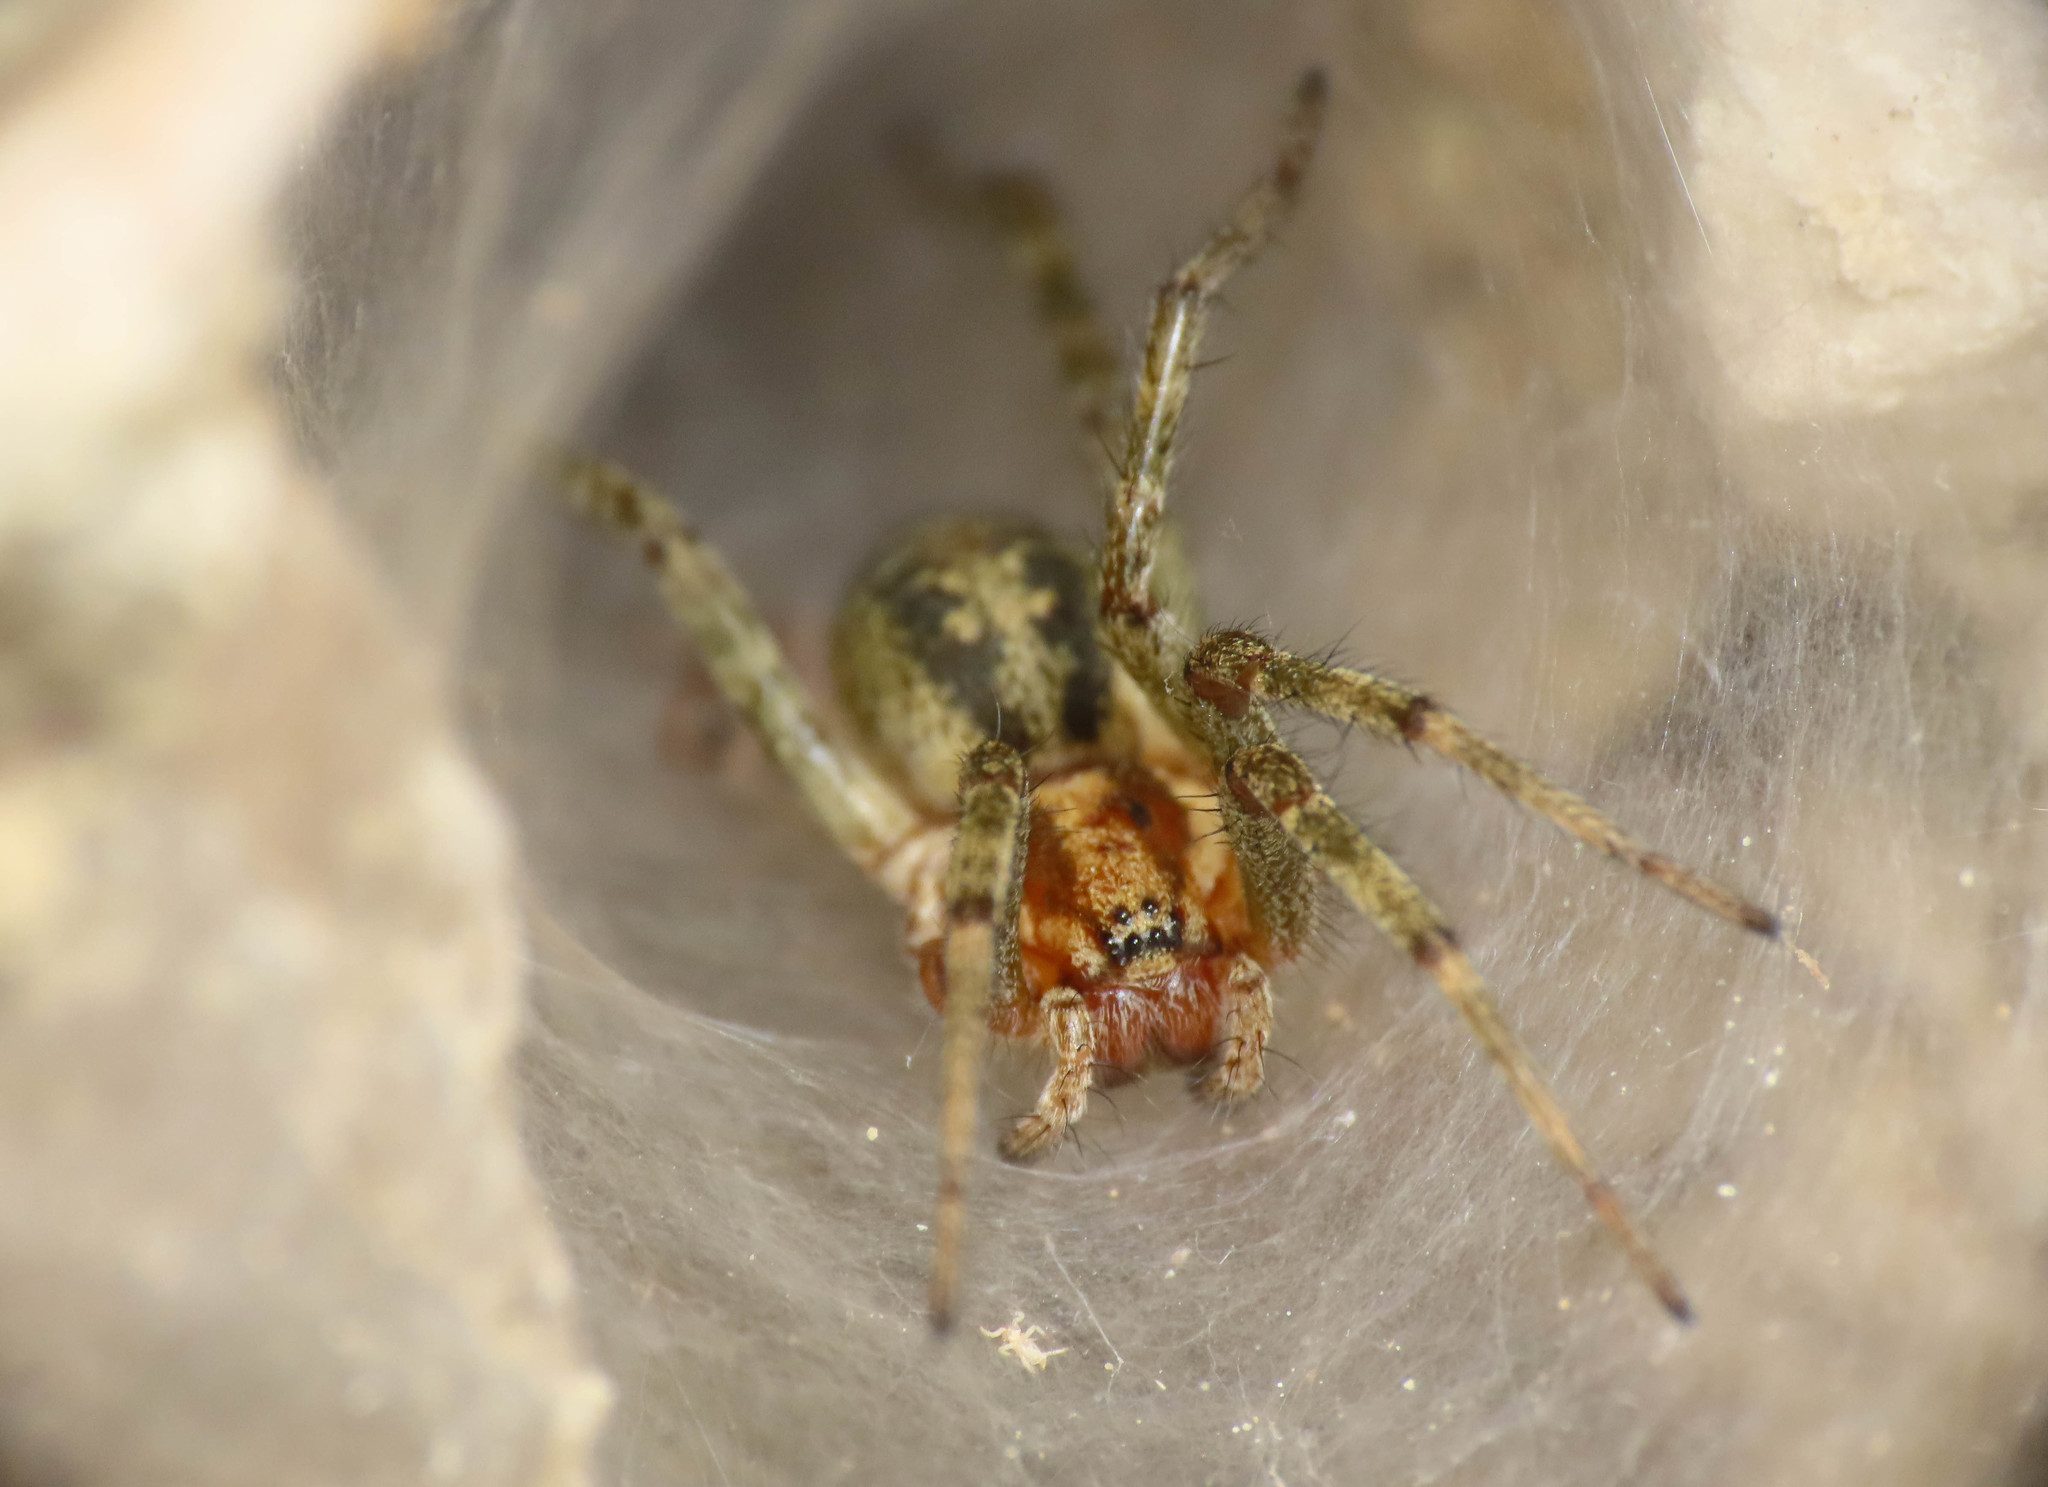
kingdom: Animalia
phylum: Arthropoda
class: Arachnida
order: Araneae
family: Agelenidae
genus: Agelena
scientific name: Agelena labyrinthica
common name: Labyrinth spider
